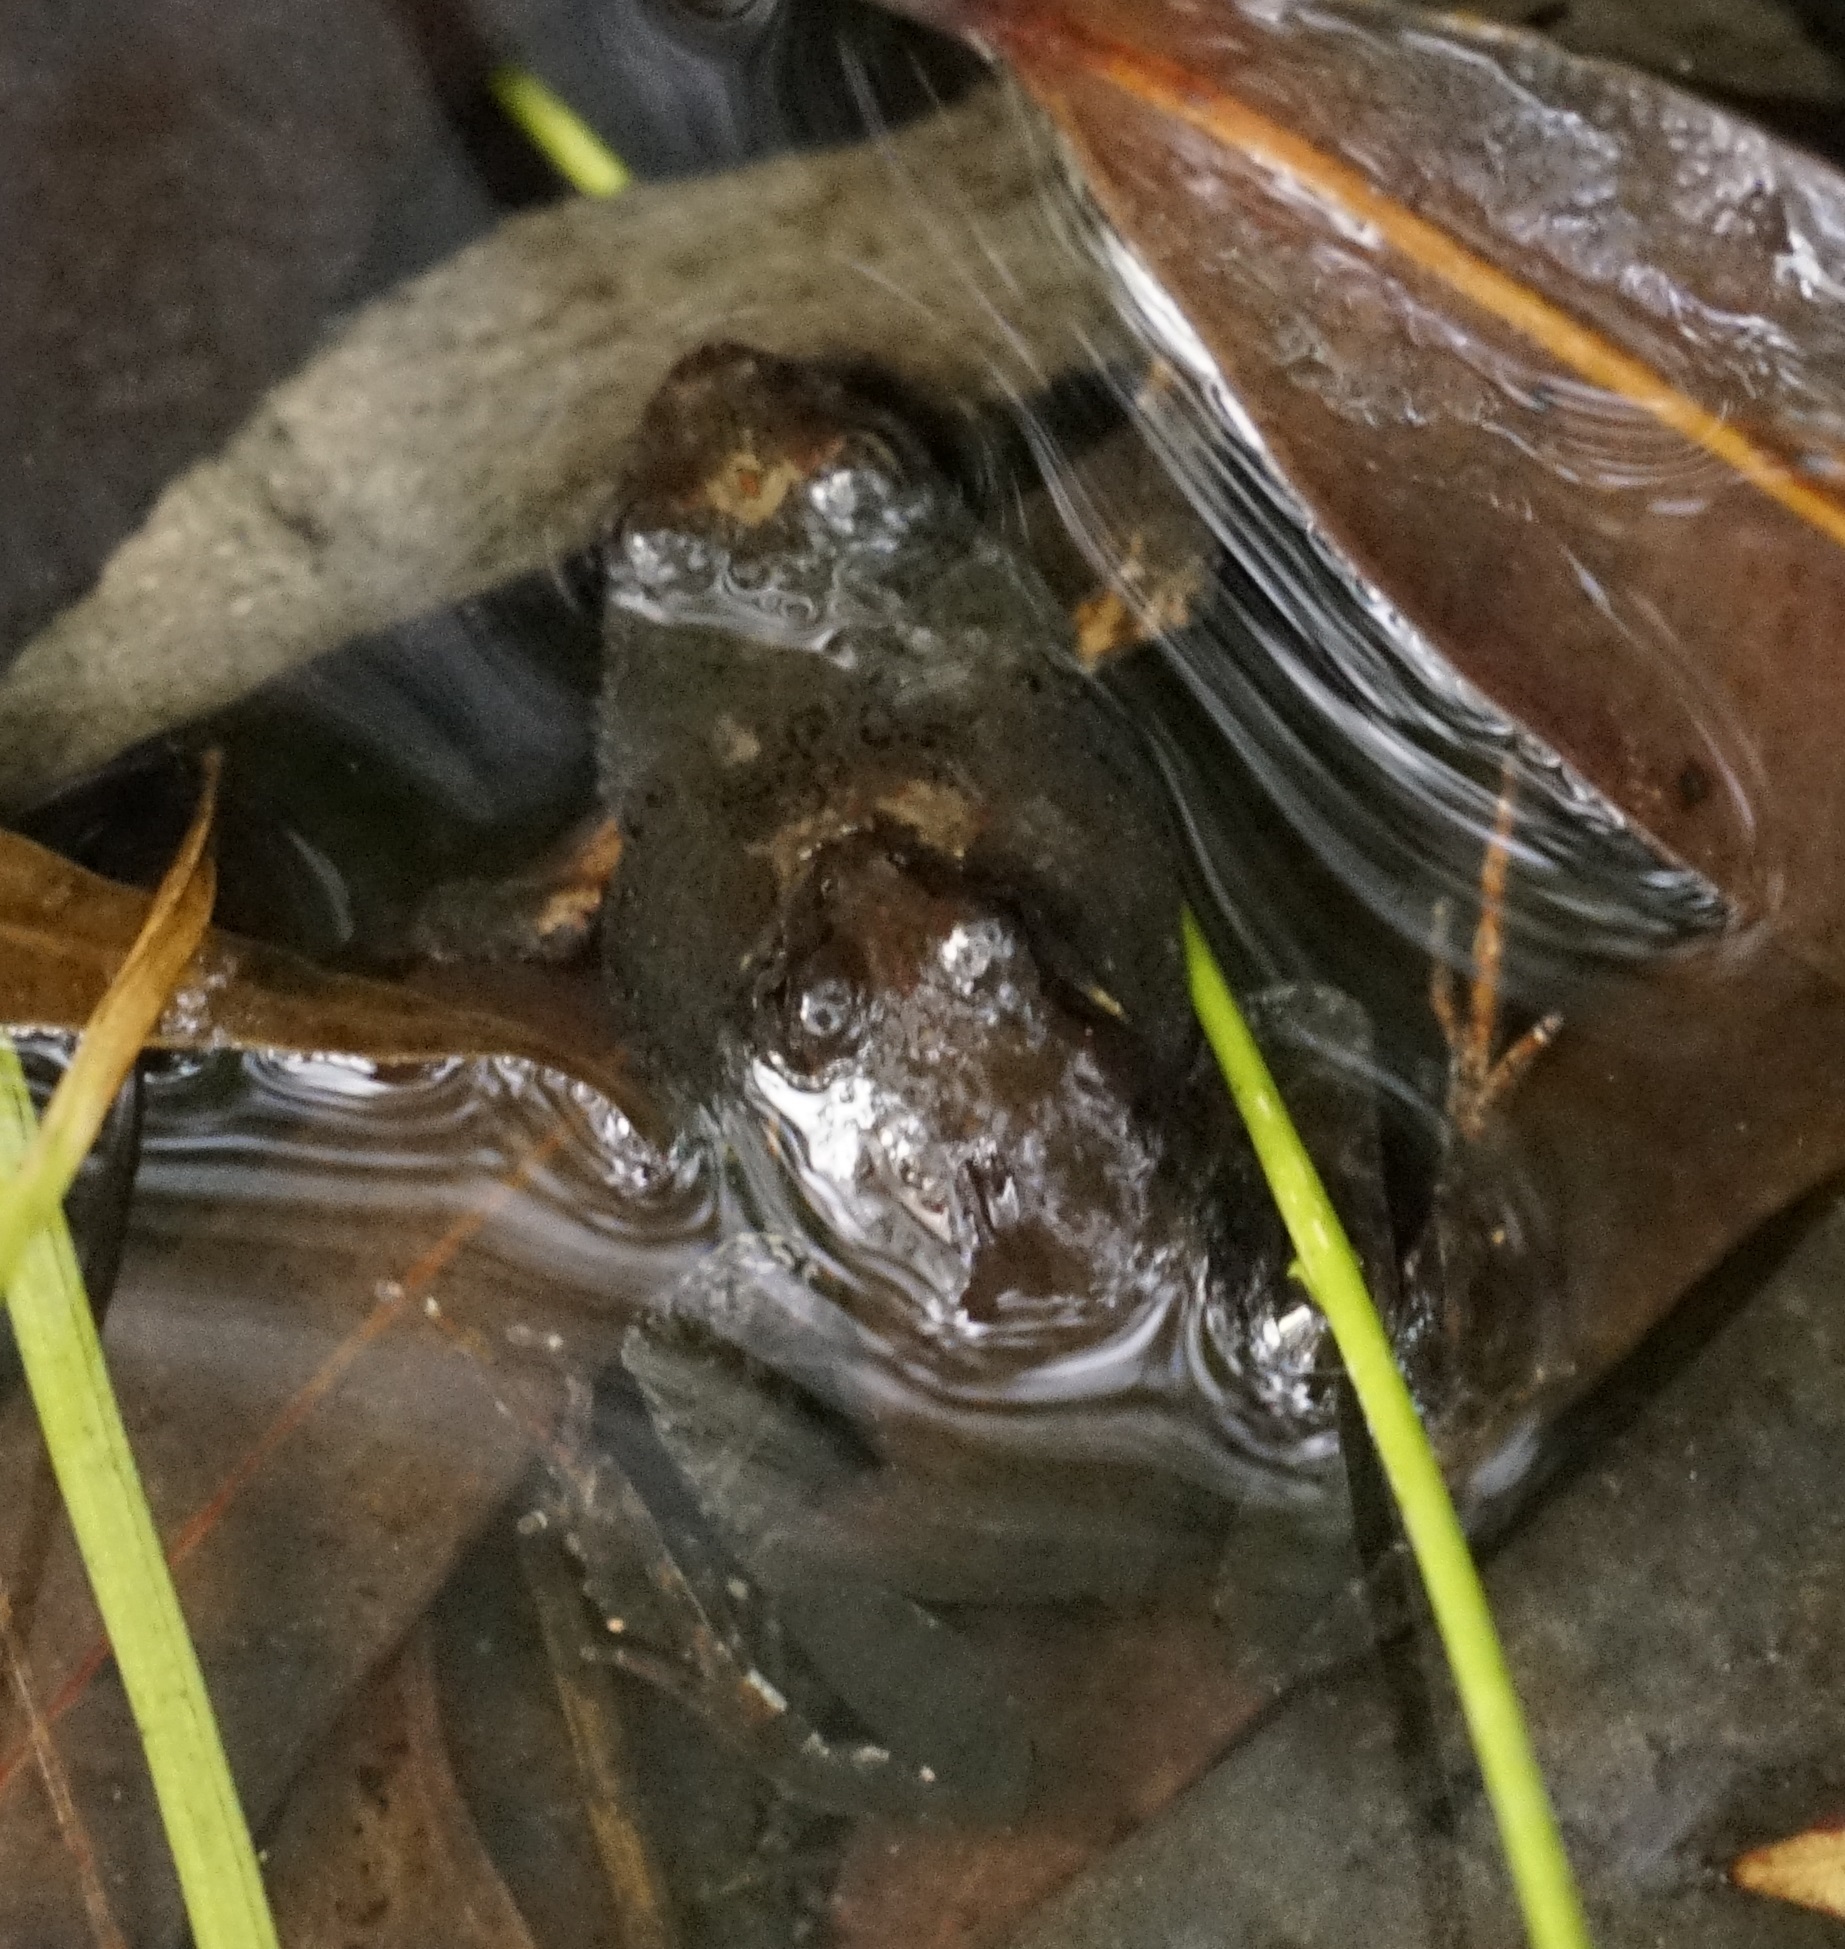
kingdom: Animalia
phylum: Chordata
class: Amphibia
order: Anura
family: Myobatrachidae
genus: Crinia
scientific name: Crinia signifera
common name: Brown froglet
